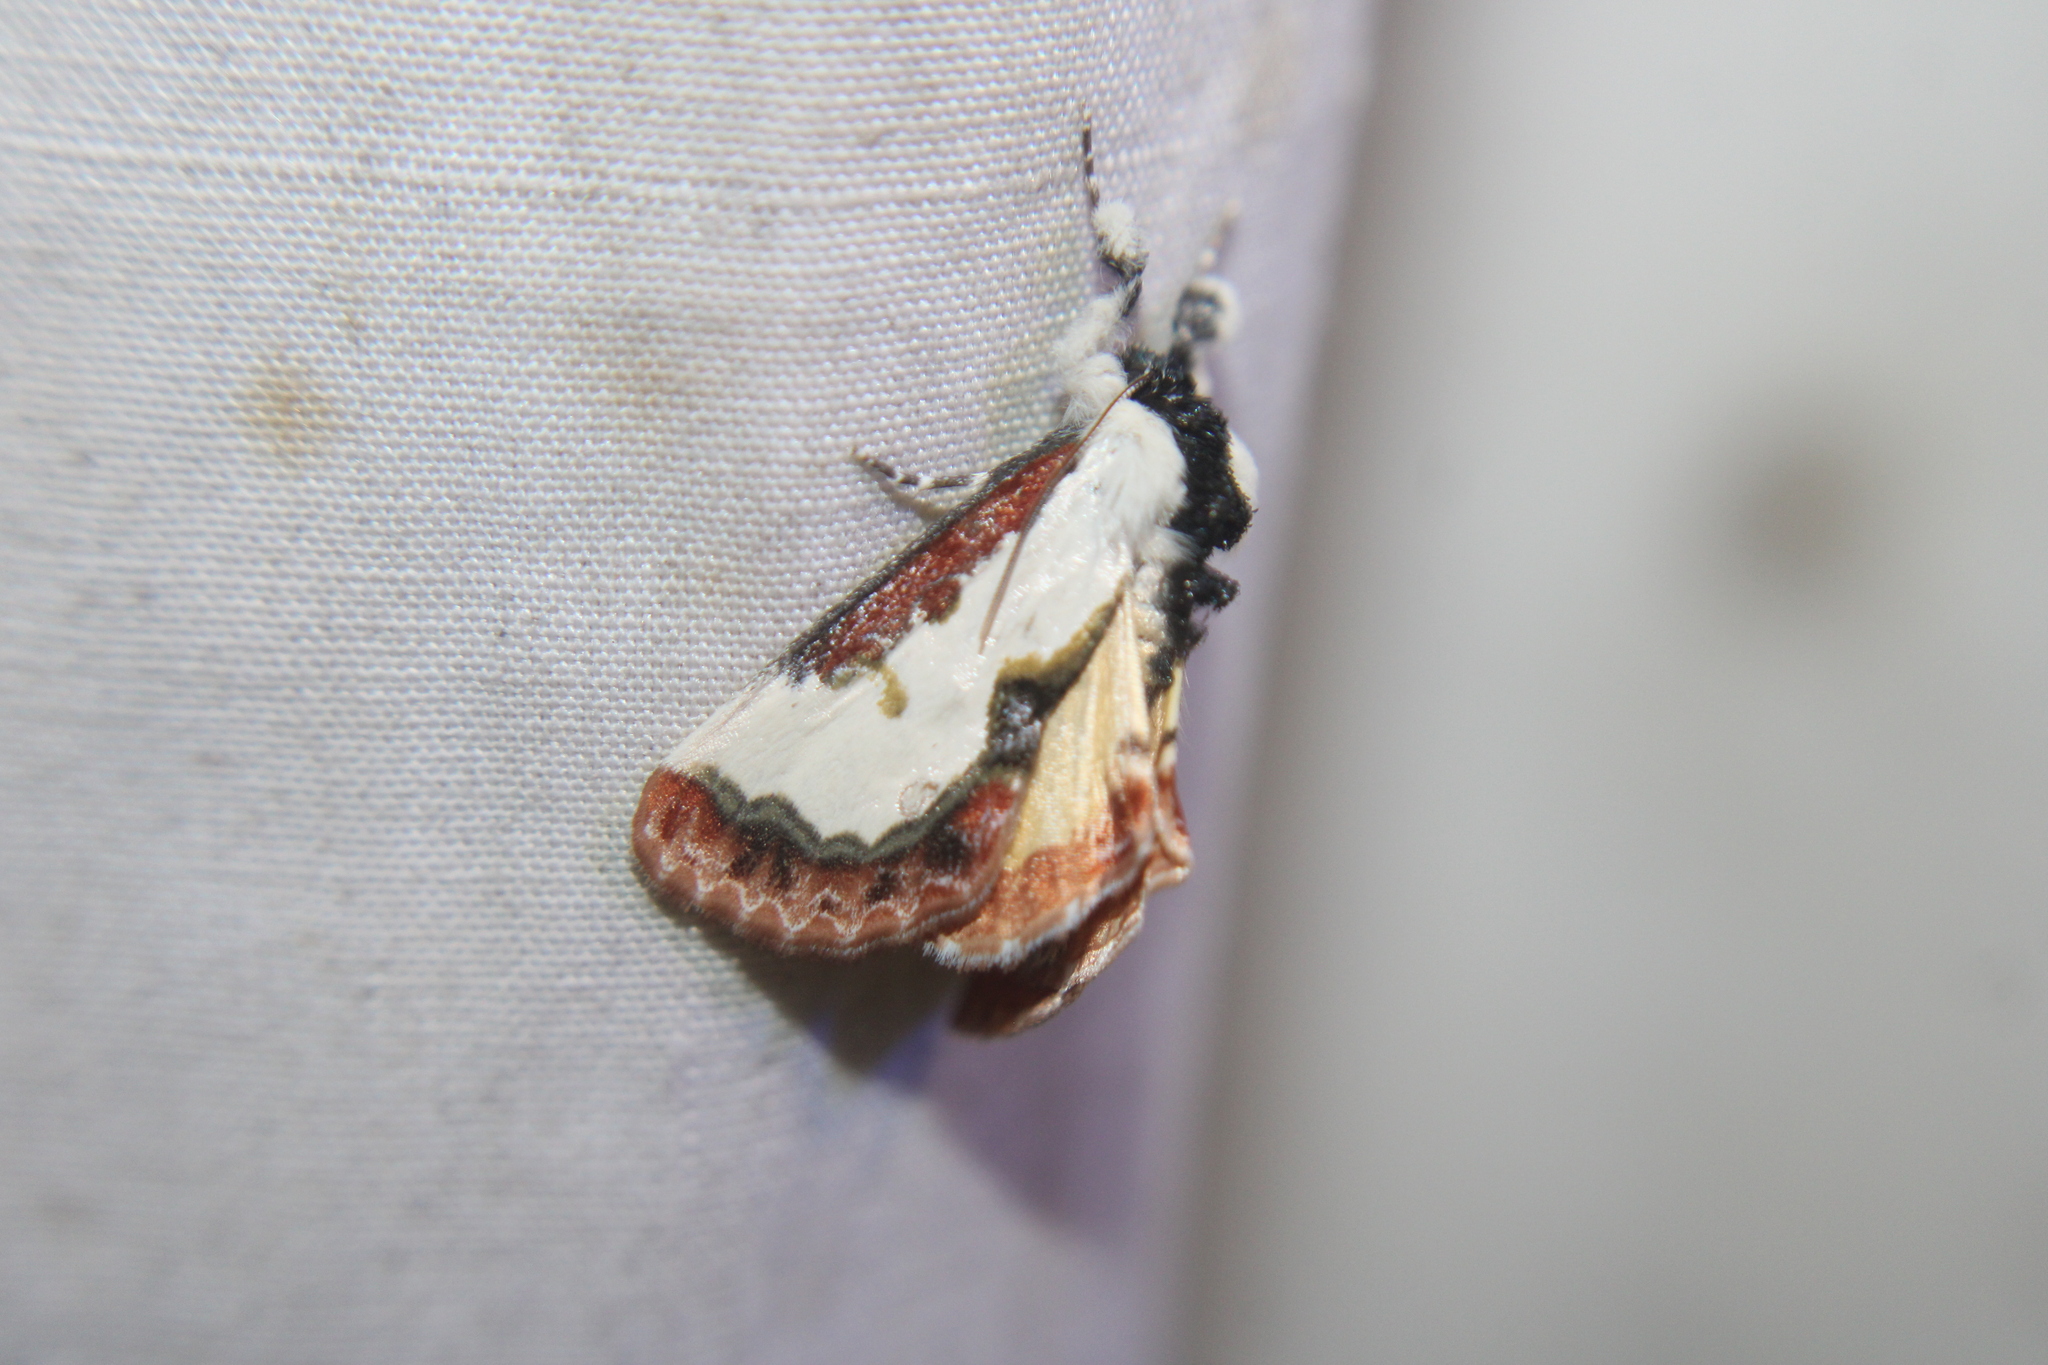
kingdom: Animalia
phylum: Arthropoda
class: Insecta
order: Lepidoptera
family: Noctuidae
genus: Eudryas
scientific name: Eudryas unio
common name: Pearly wood-nymph
